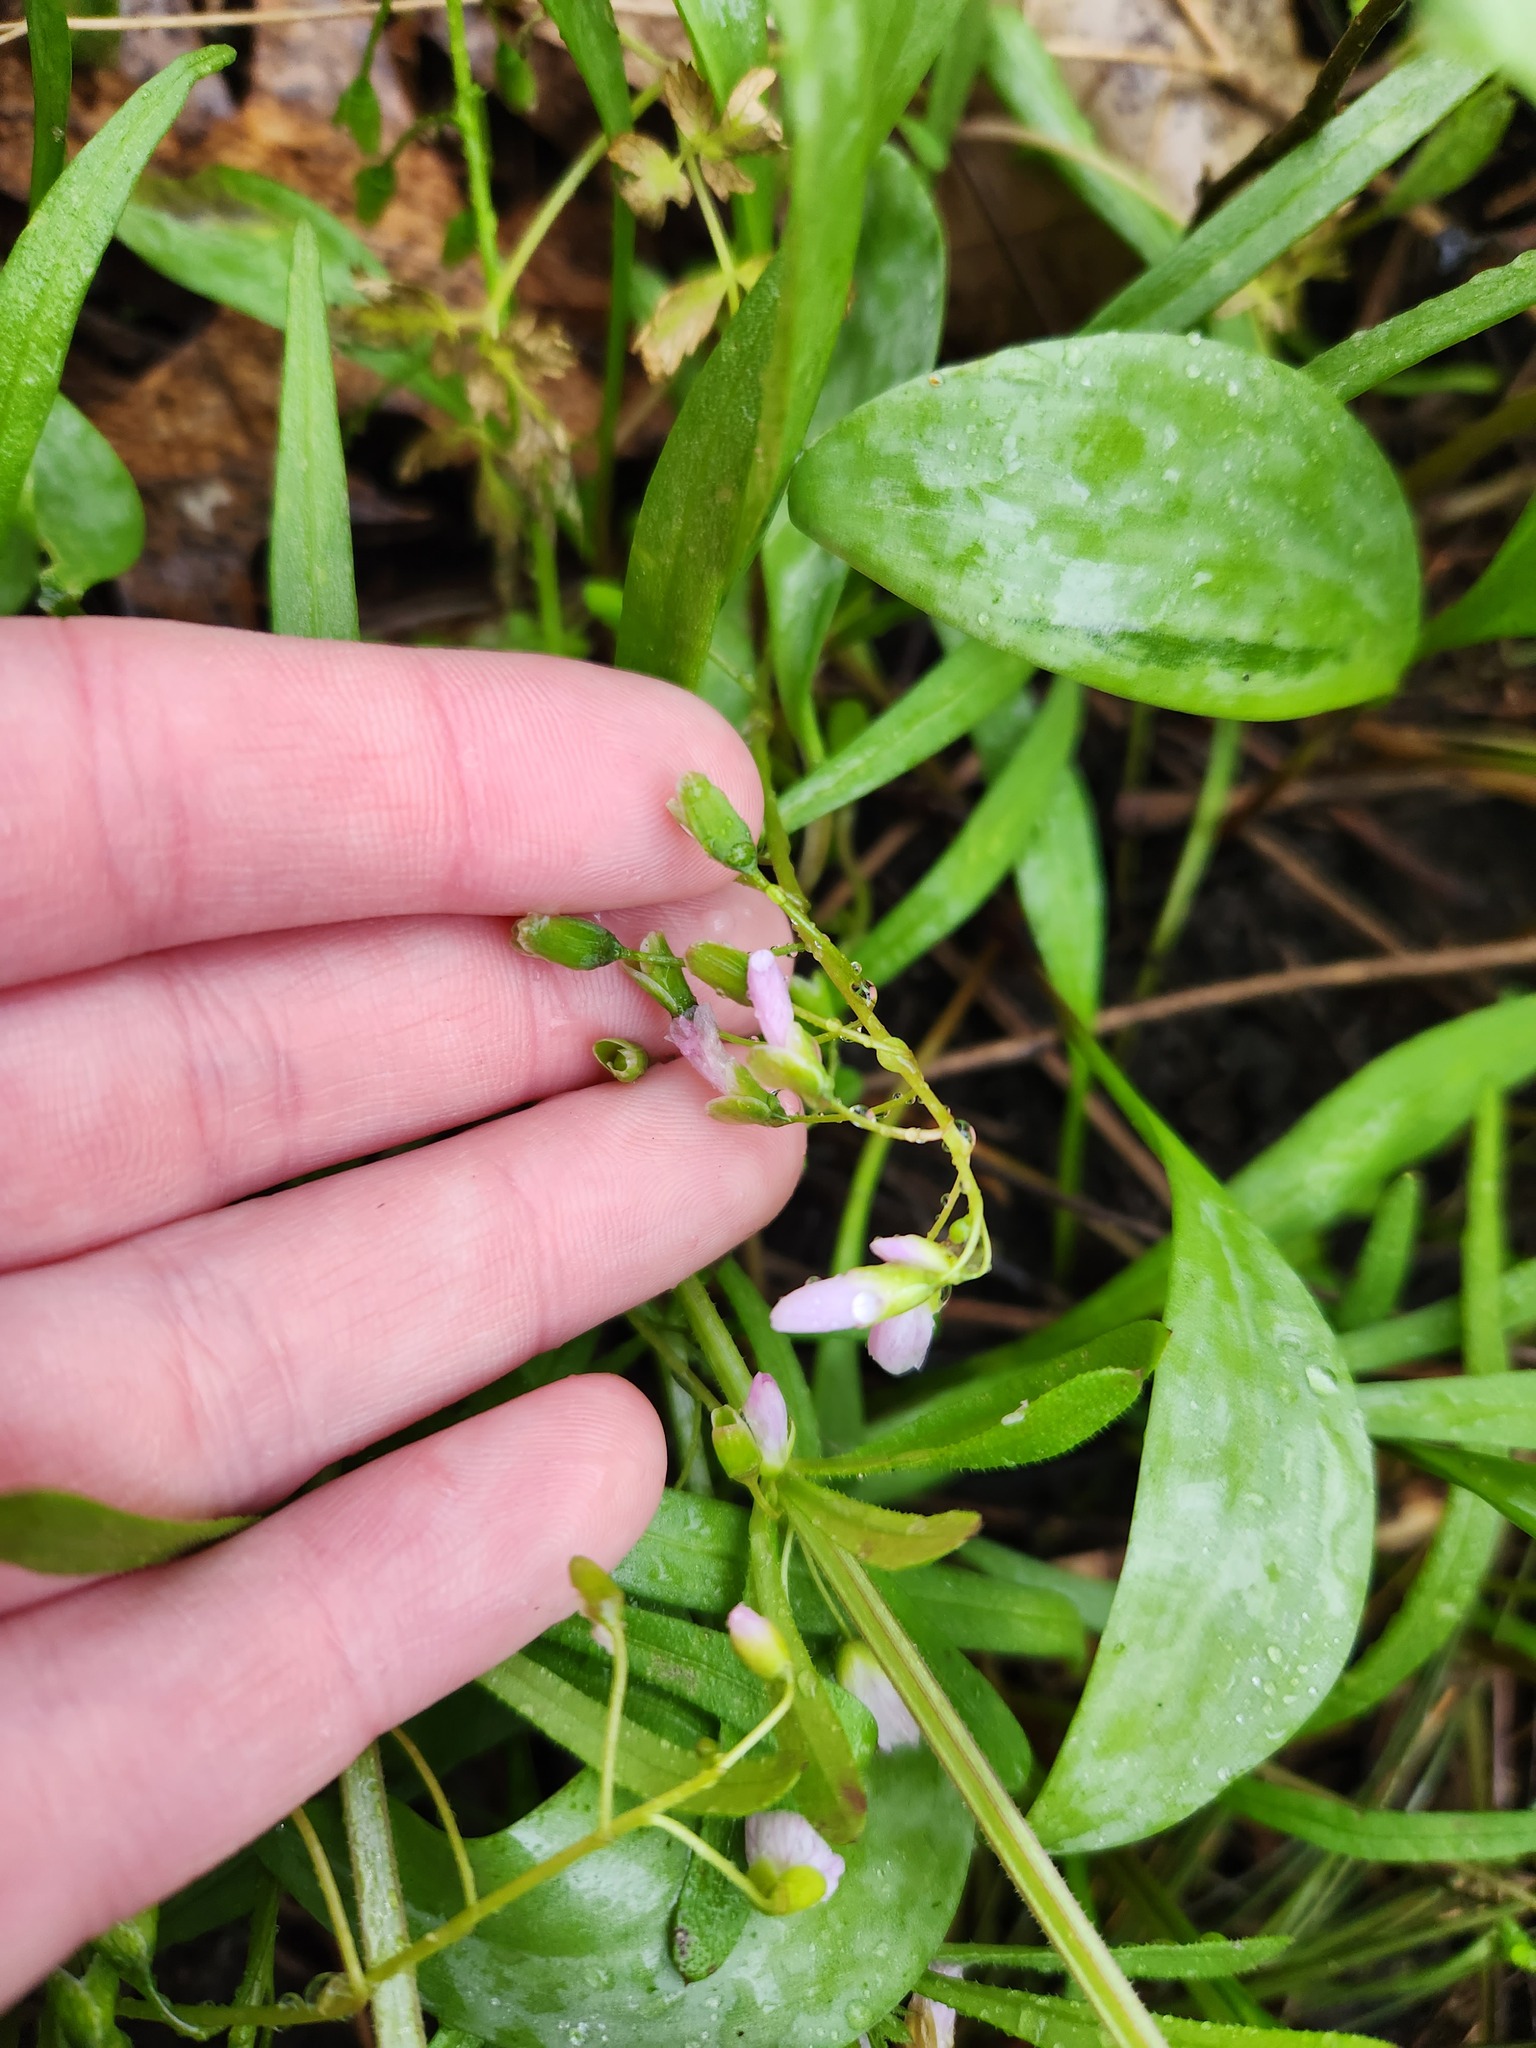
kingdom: Plantae
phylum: Tracheophyta
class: Magnoliopsida
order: Caryophyllales
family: Montiaceae
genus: Claytonia
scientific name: Claytonia virginica
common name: Virginia springbeauty
